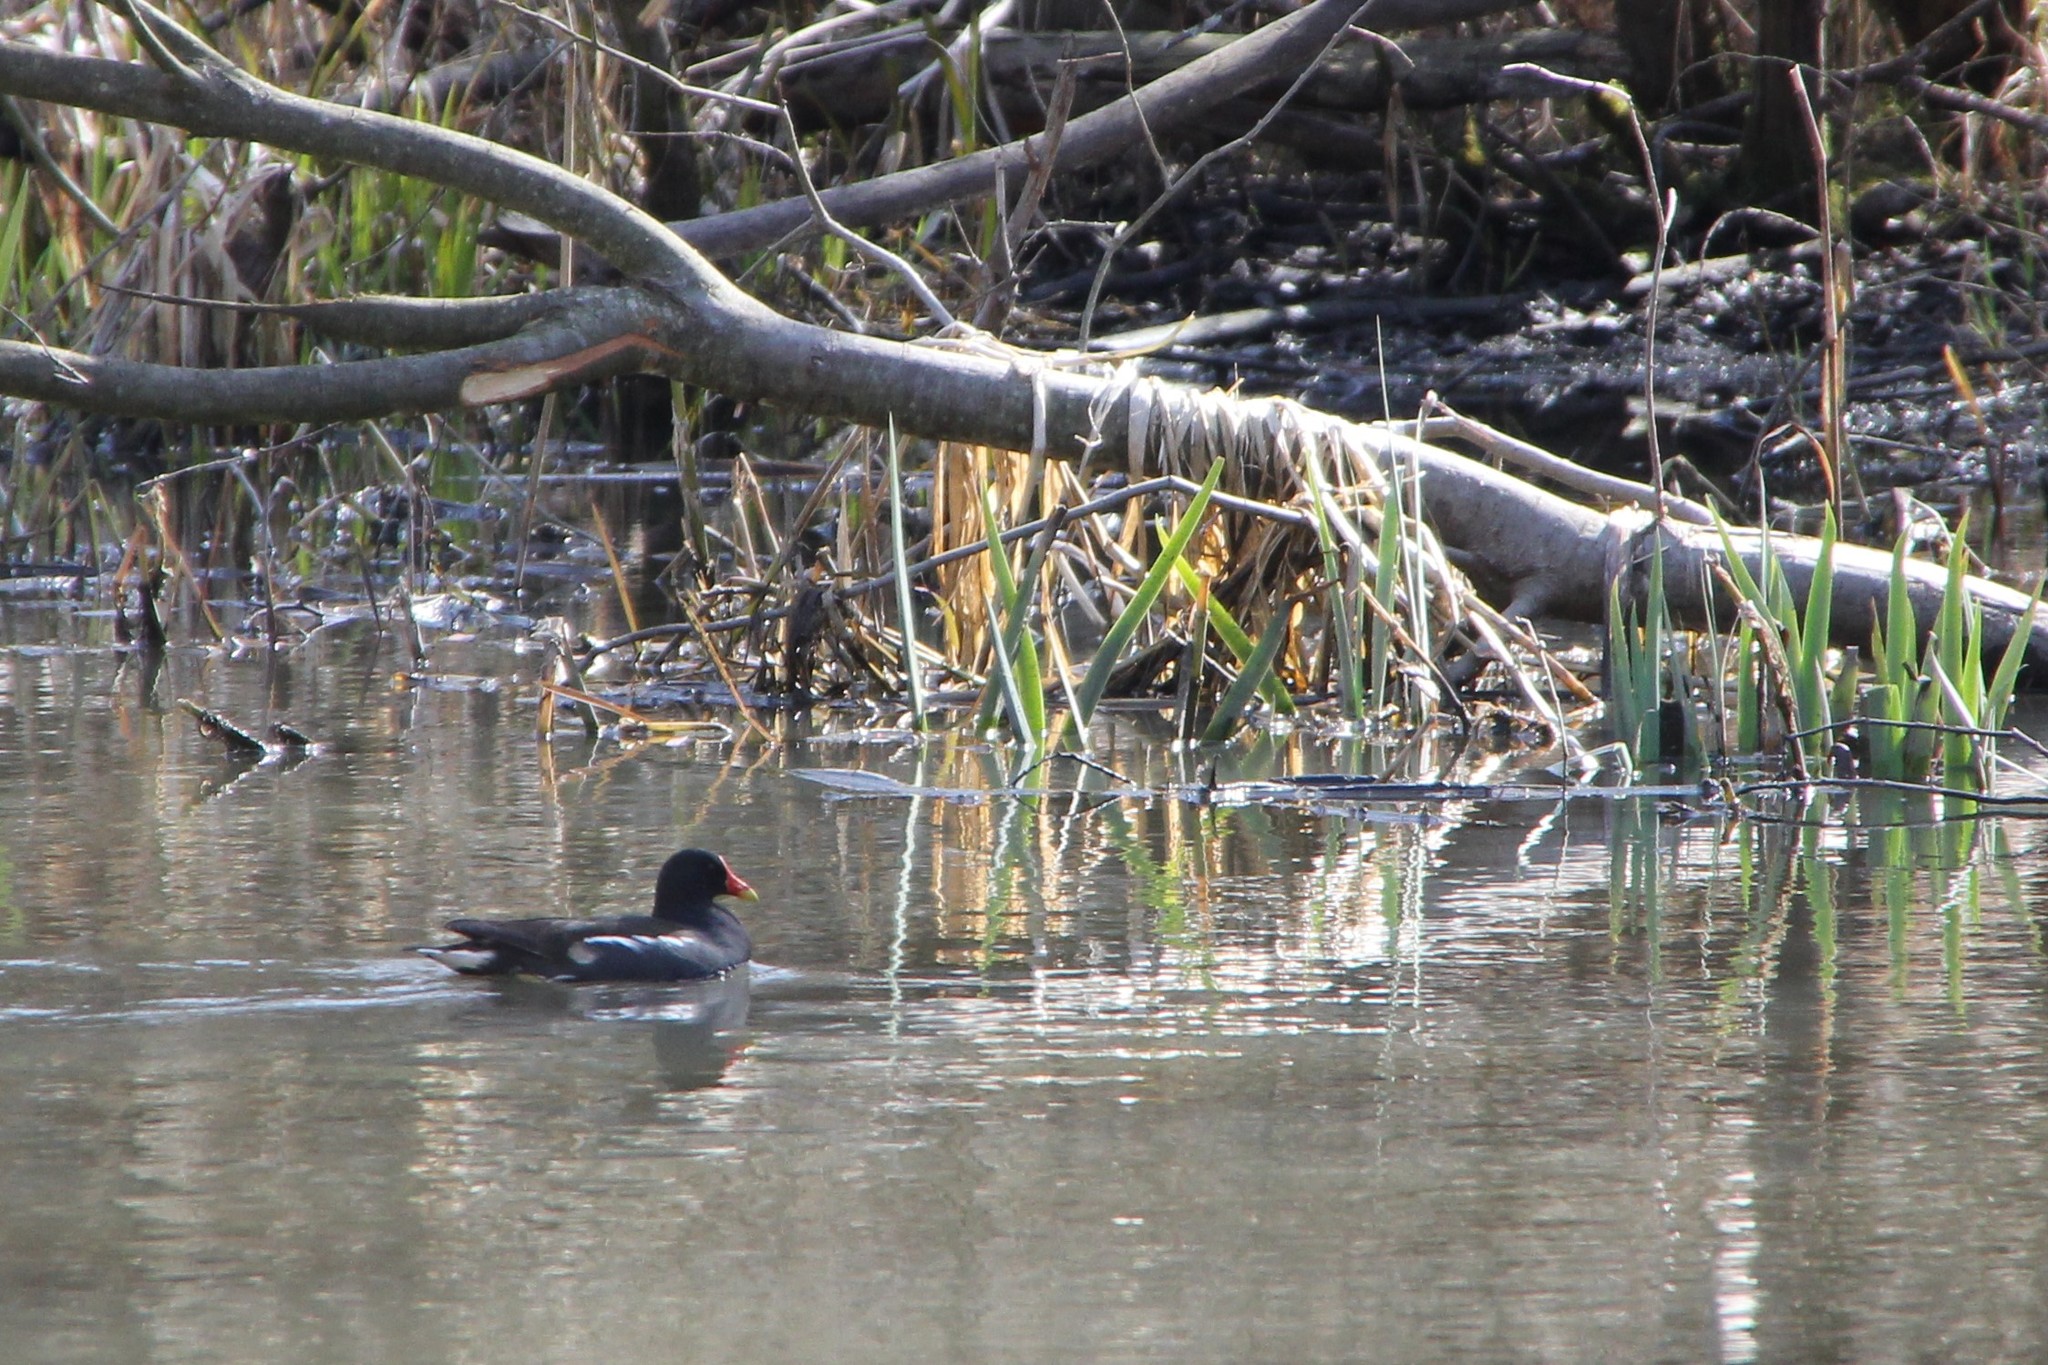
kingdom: Animalia
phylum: Chordata
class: Aves
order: Gruiformes
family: Rallidae
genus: Gallinula
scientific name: Gallinula chloropus
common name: Common moorhen
